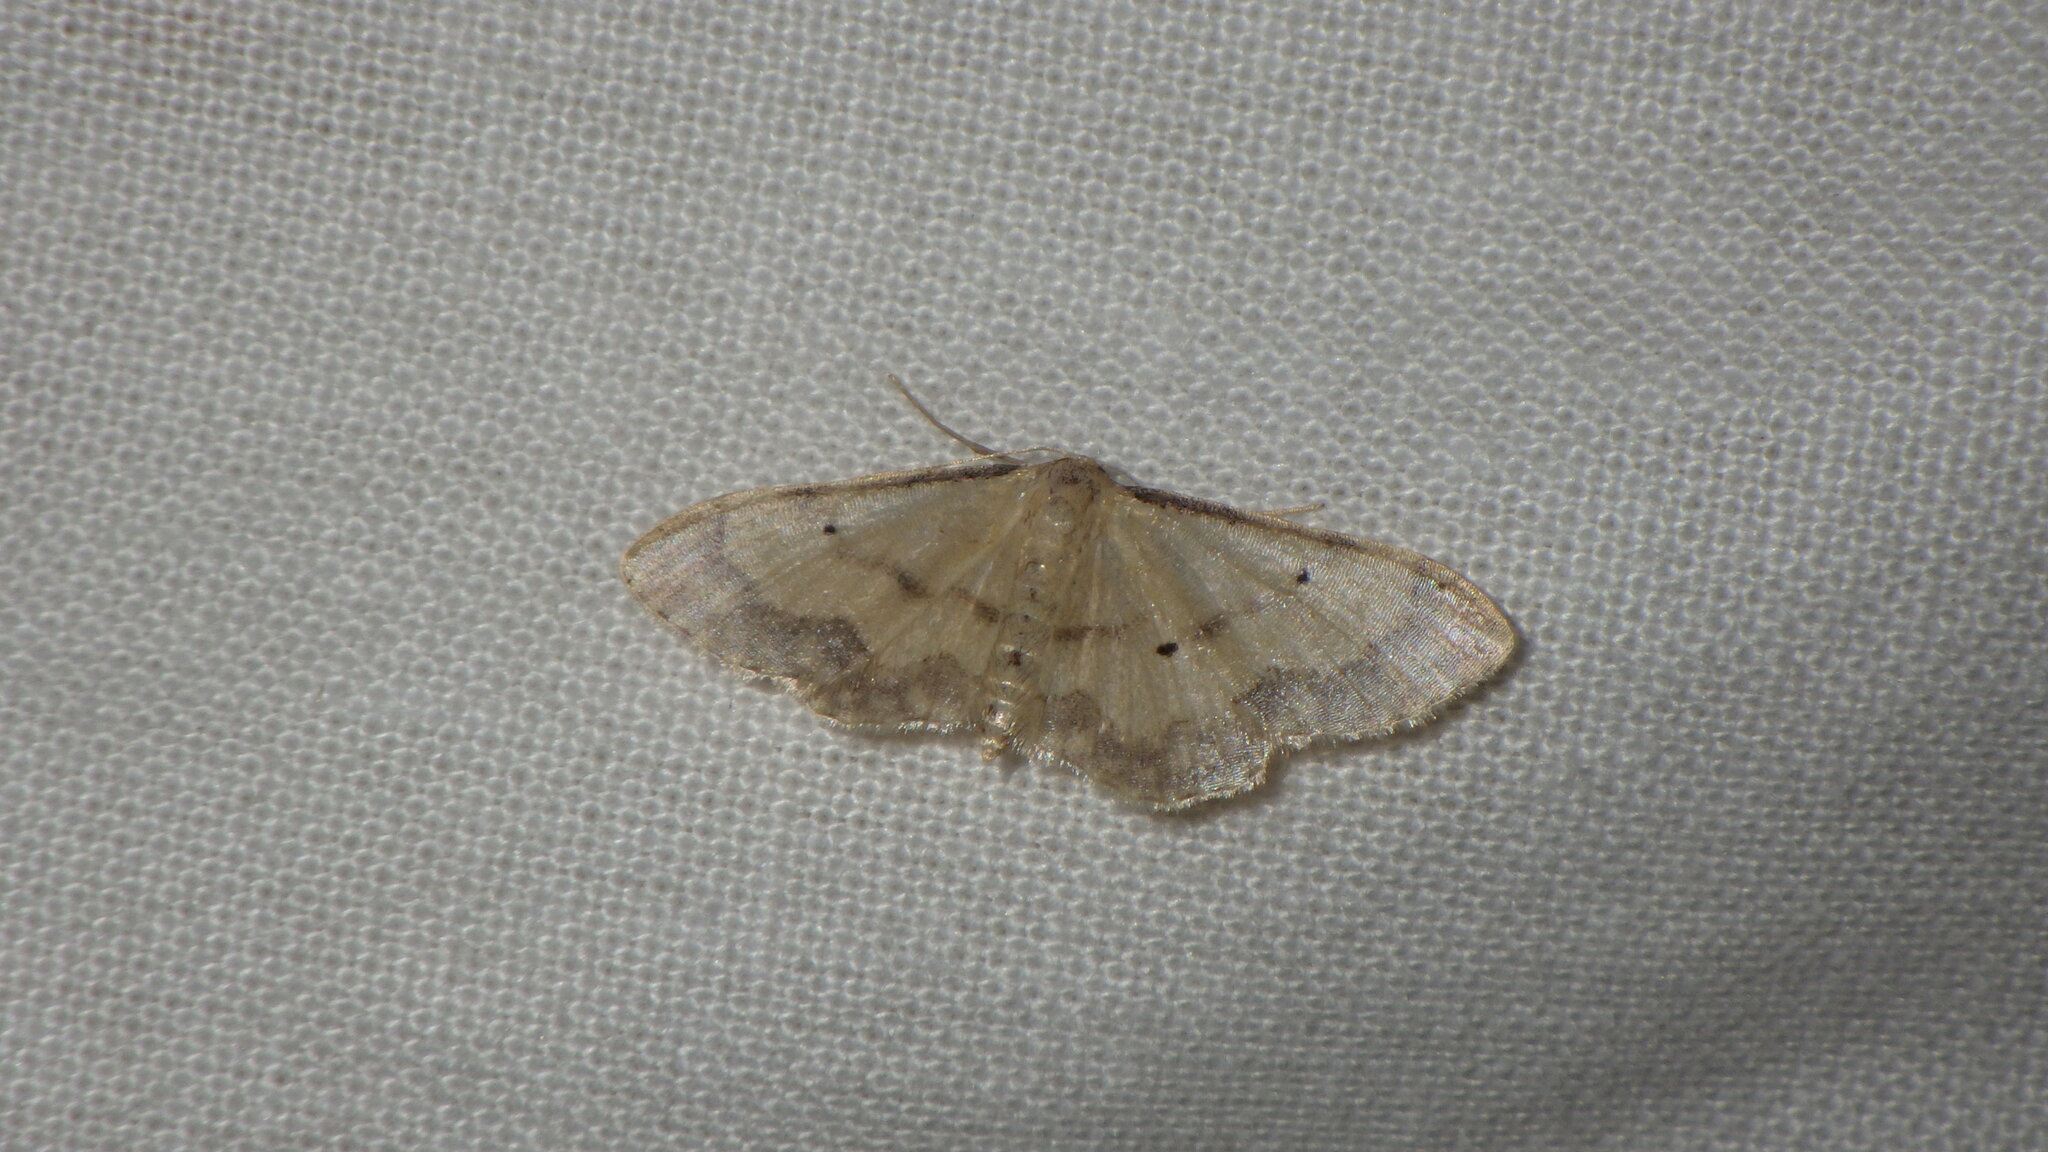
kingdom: Animalia
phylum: Arthropoda
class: Insecta
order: Lepidoptera
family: Geometridae
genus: Idaea
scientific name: Idaea politaria
